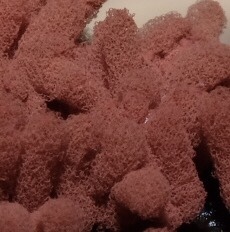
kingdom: Protozoa
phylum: Mycetozoa
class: Myxomycetes
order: Trichiales
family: Arcyriaceae
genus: Arcyria
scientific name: Arcyria denudata
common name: Carnival candy slime mold
